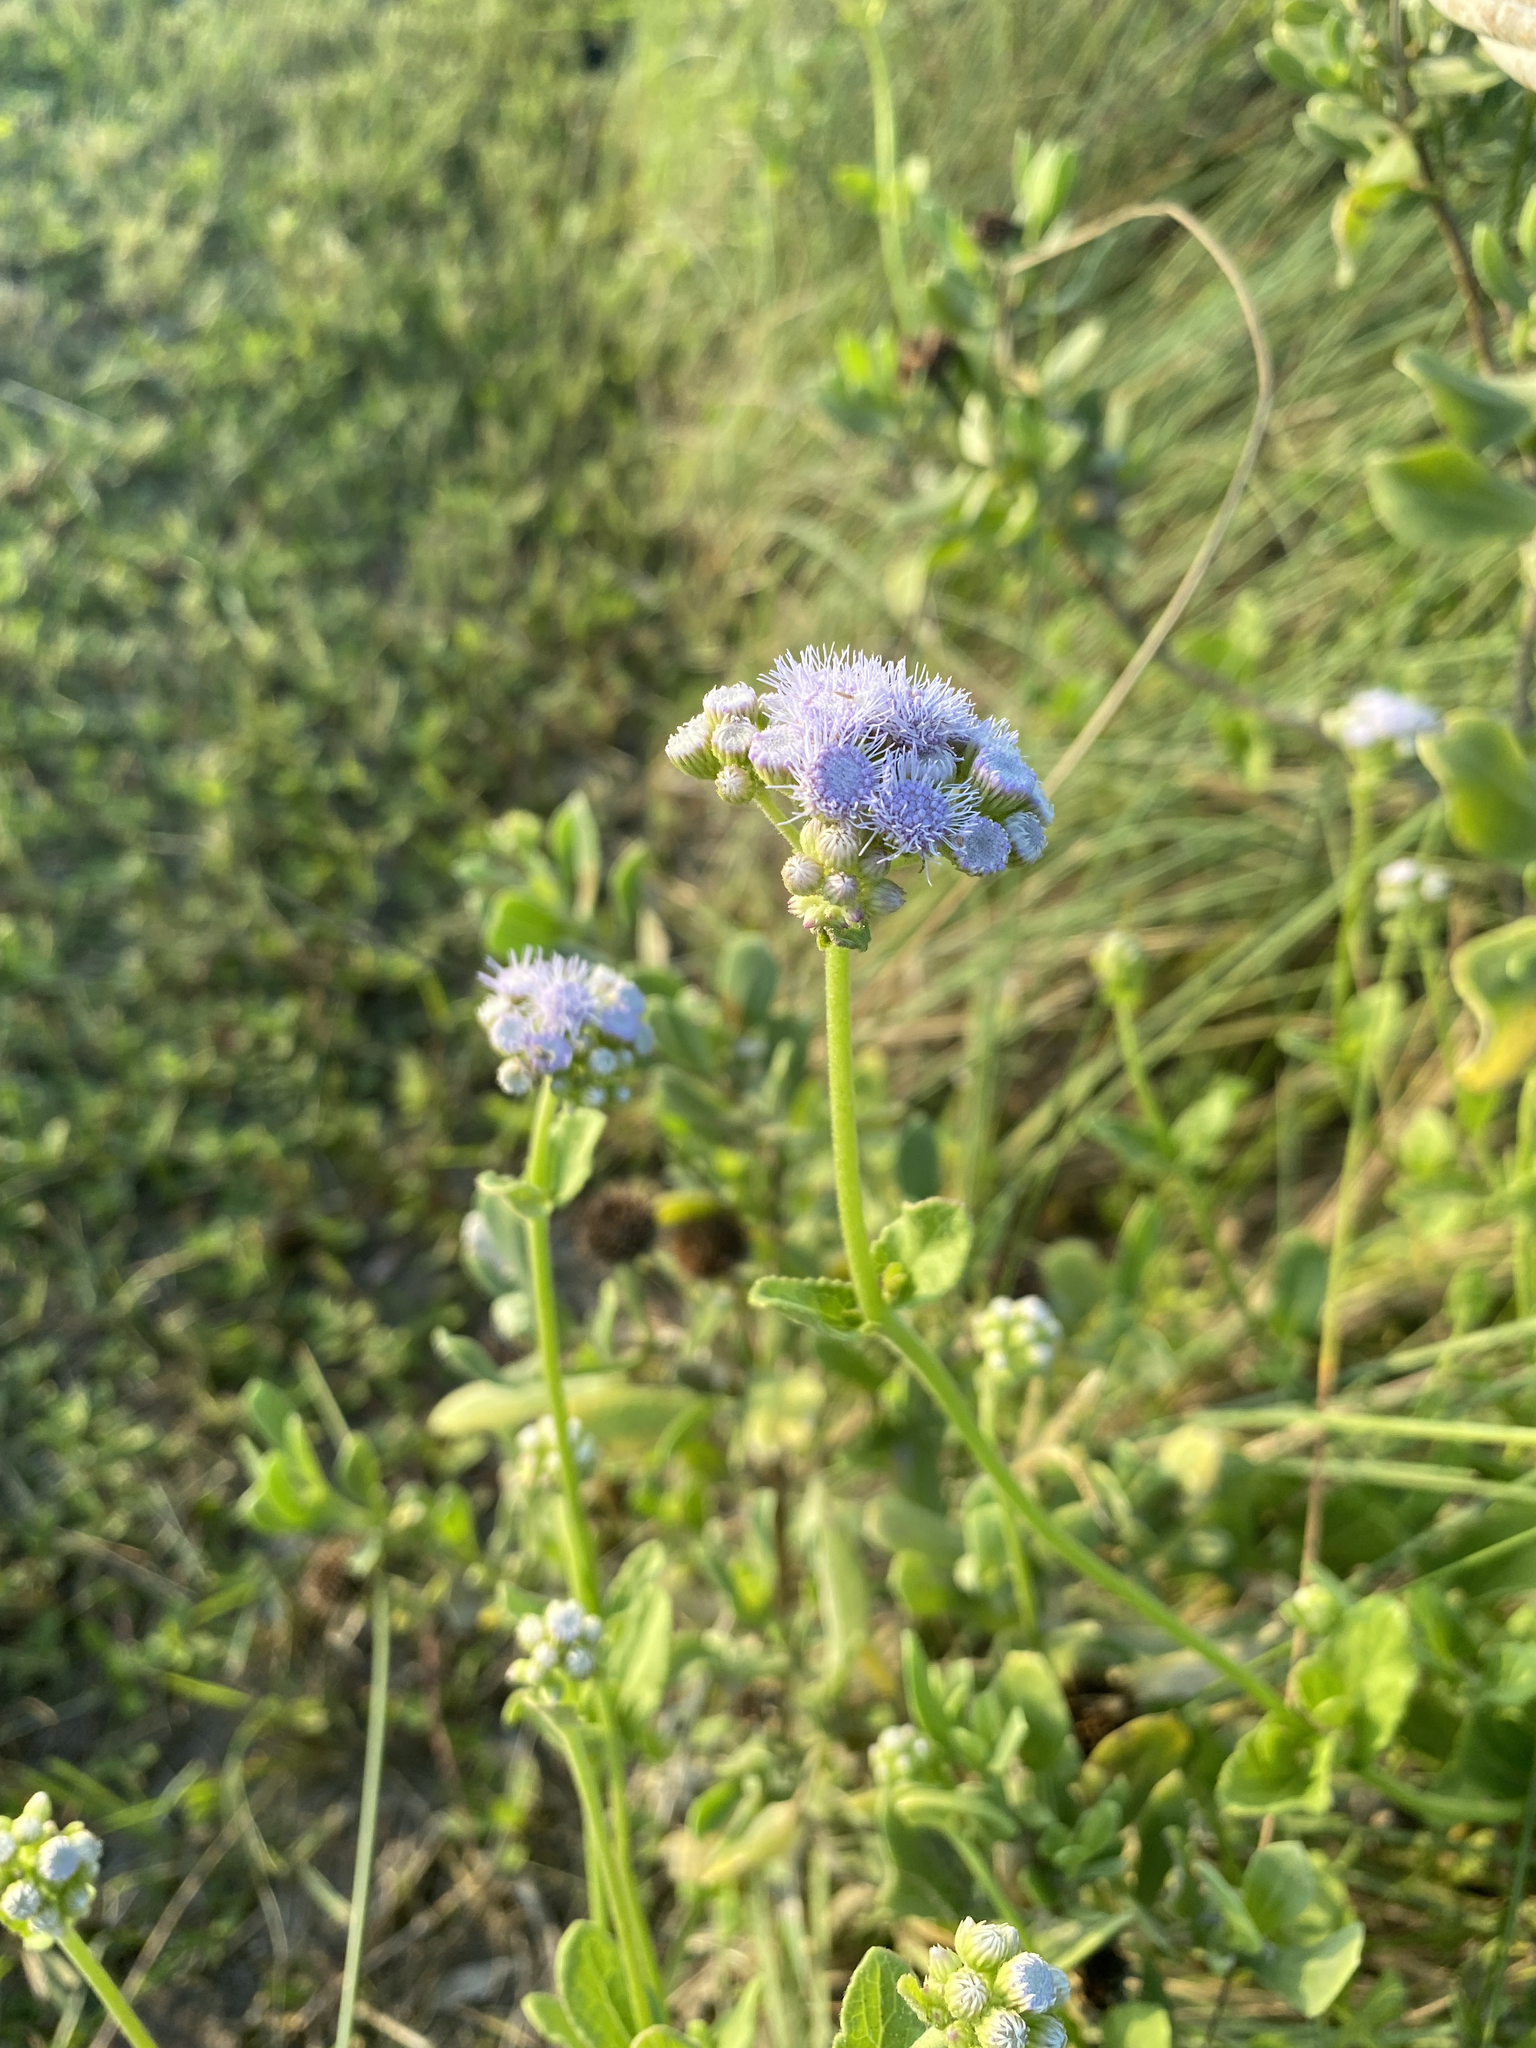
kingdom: Plantae
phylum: Tracheophyta
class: Magnoliopsida
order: Asterales
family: Asteraceae
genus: Conoclinium
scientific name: Conoclinium betonicifolium
